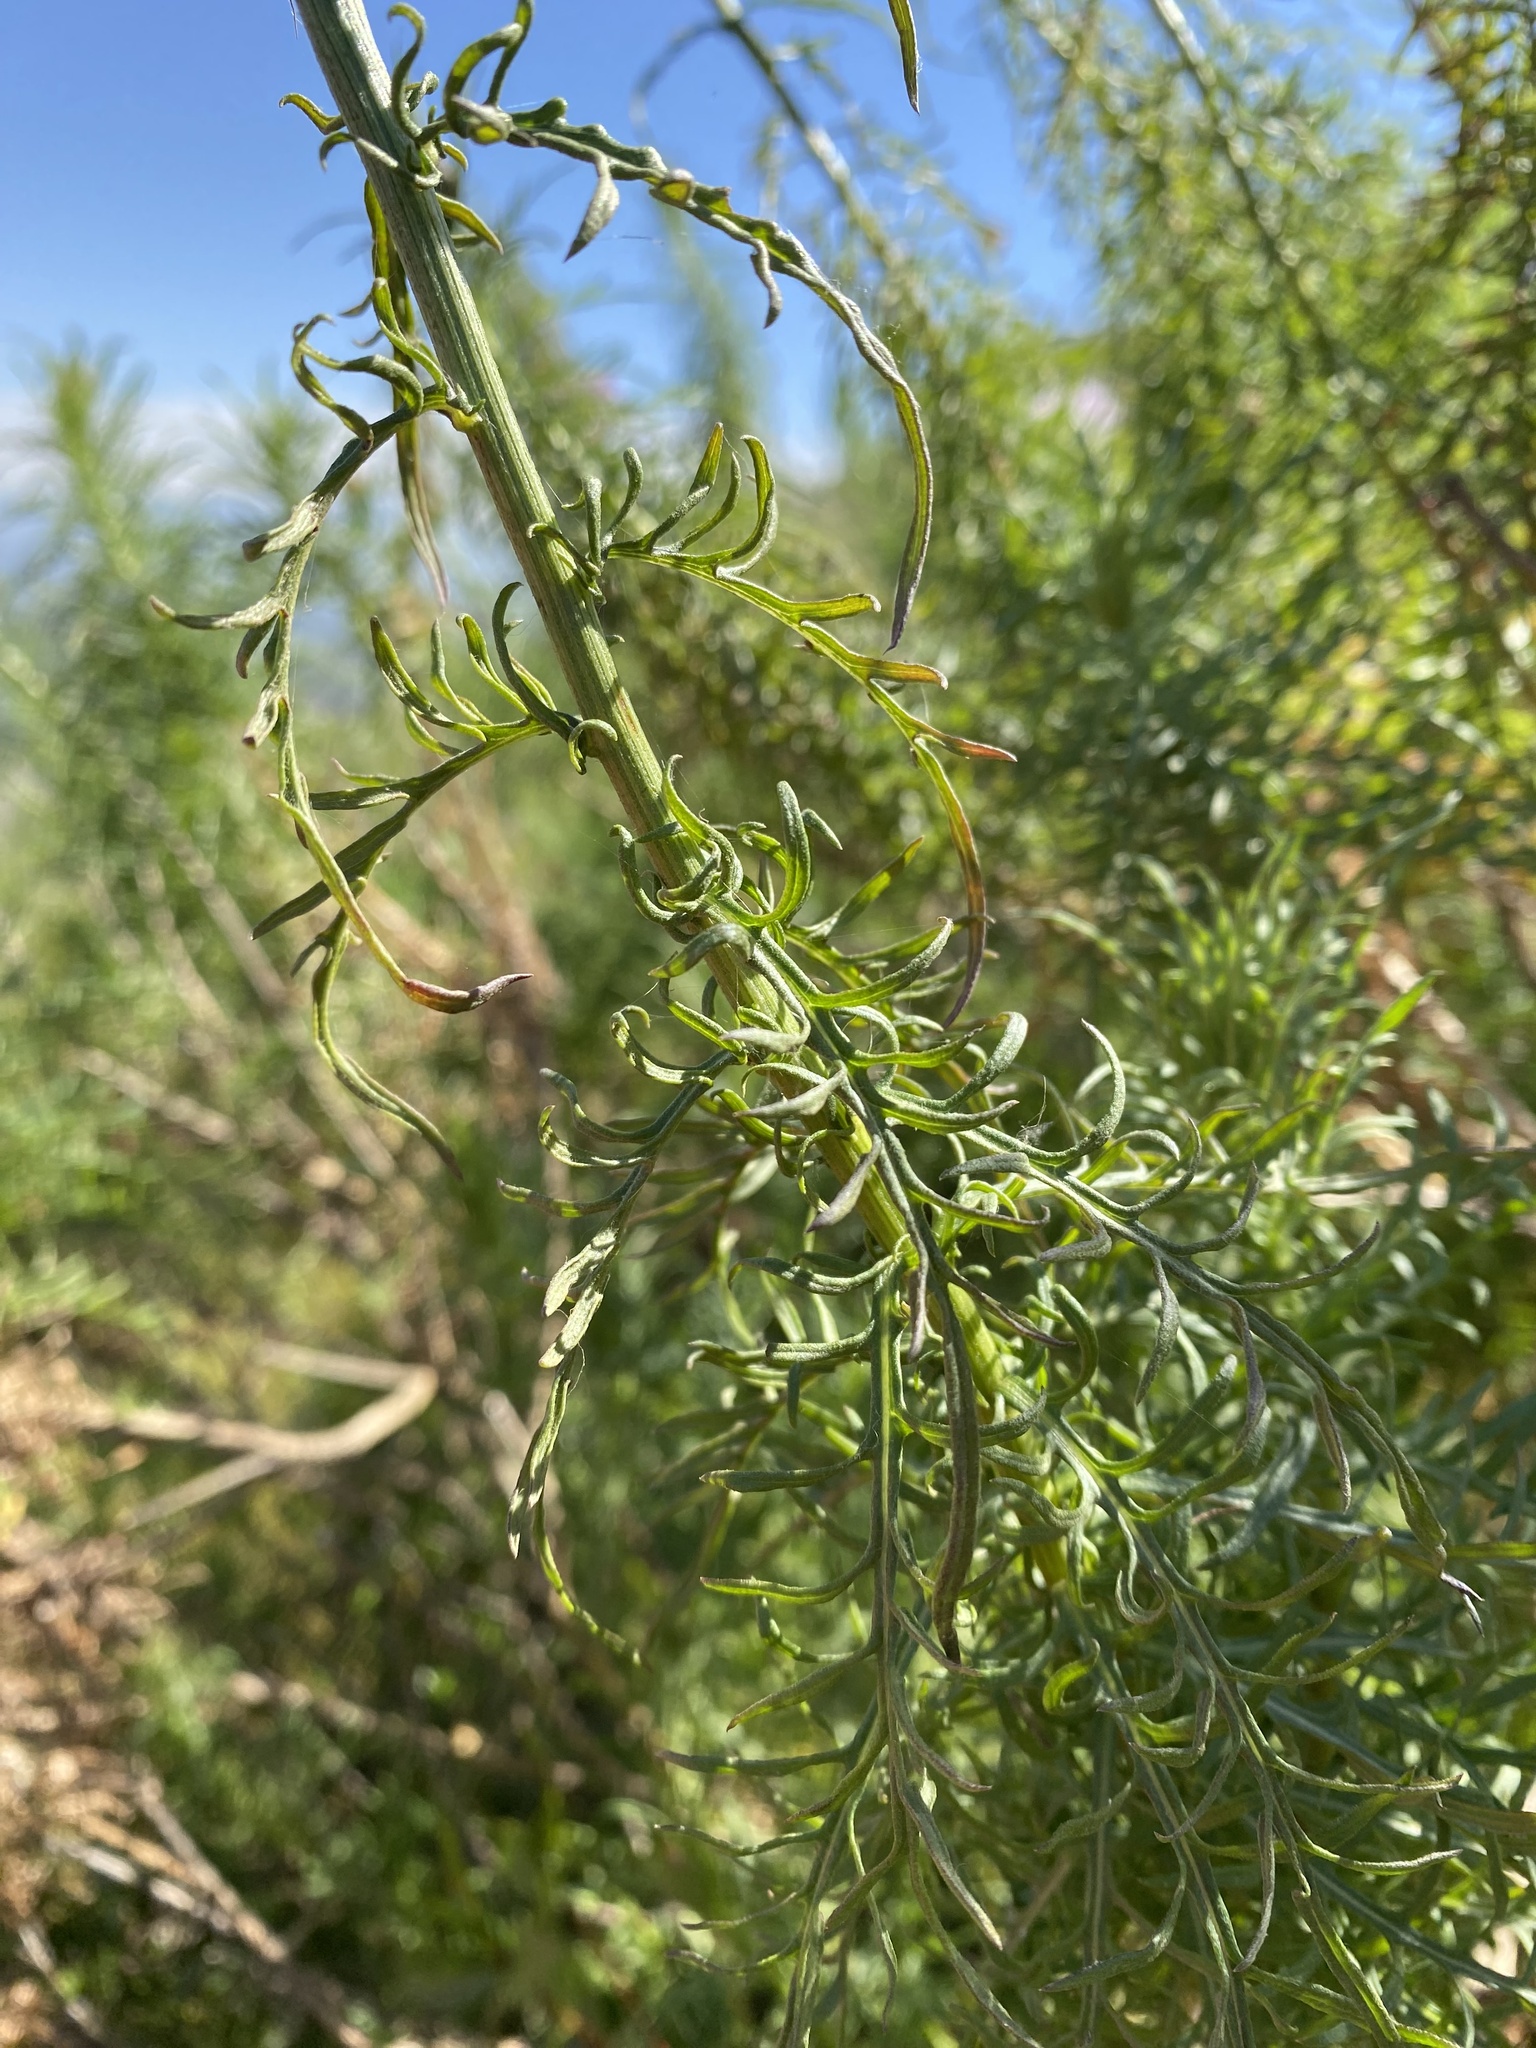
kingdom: Plantae
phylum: Tracheophyta
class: Magnoliopsida
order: Asterales
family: Asteraceae
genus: Plectocephalus
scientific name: Plectocephalus chilensis
